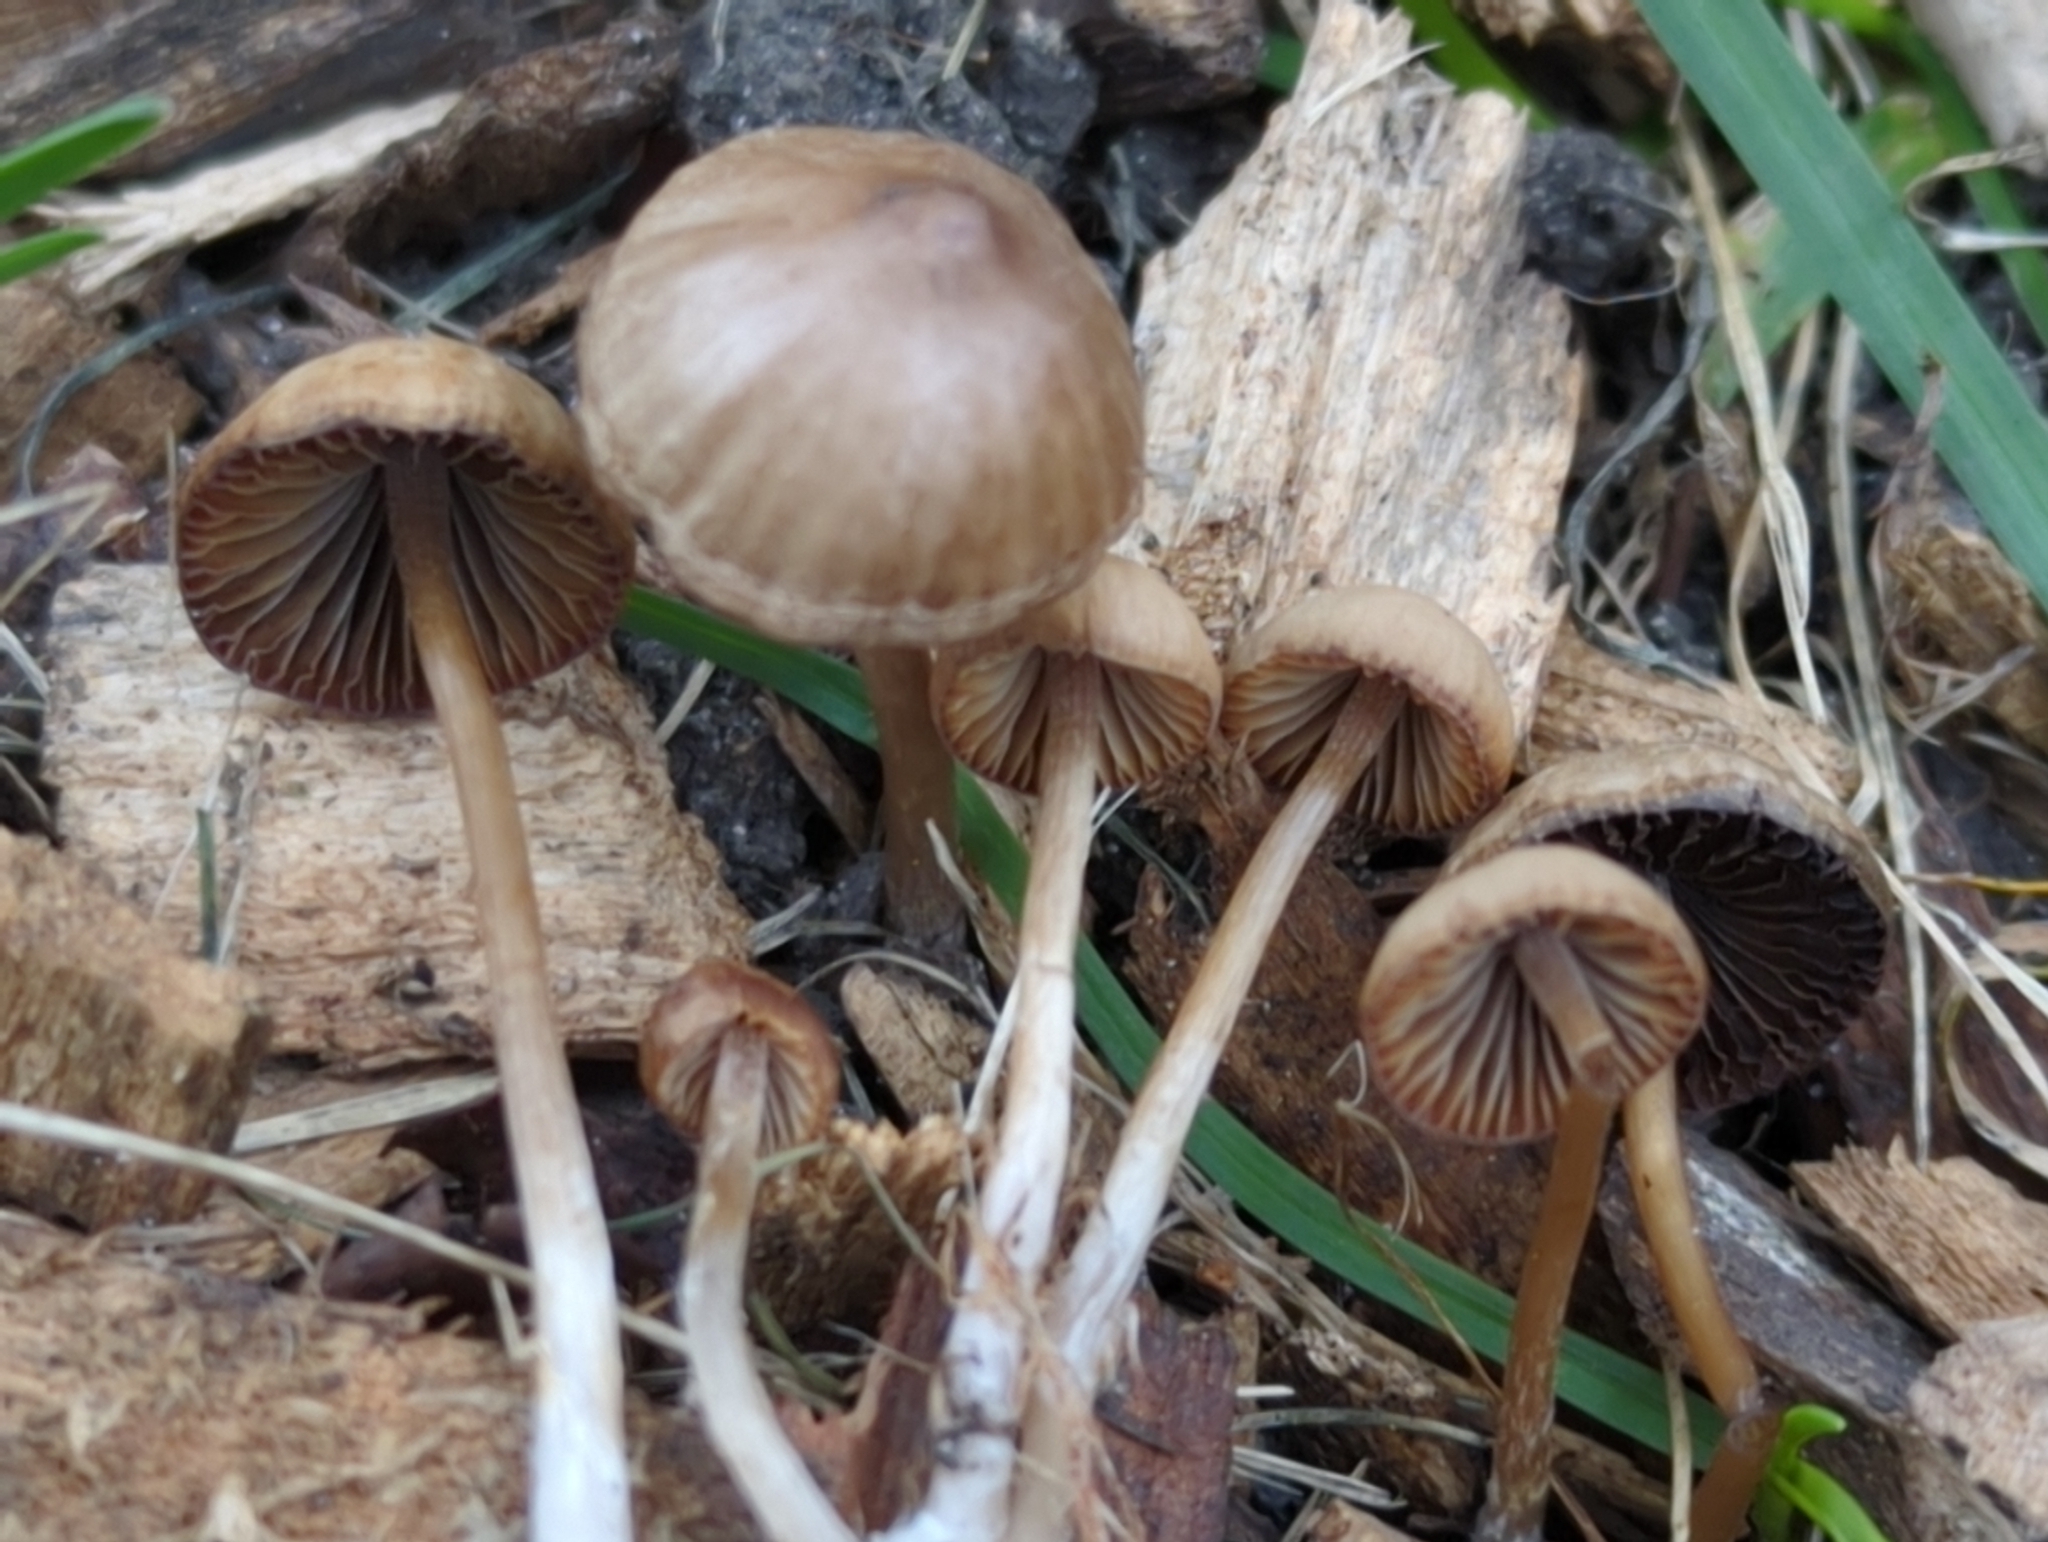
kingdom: Fungi
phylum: Basidiomycota
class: Agaricomycetes
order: Agaricales
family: Psathyrellaceae
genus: Psathyrella
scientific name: Psathyrella longicauda
